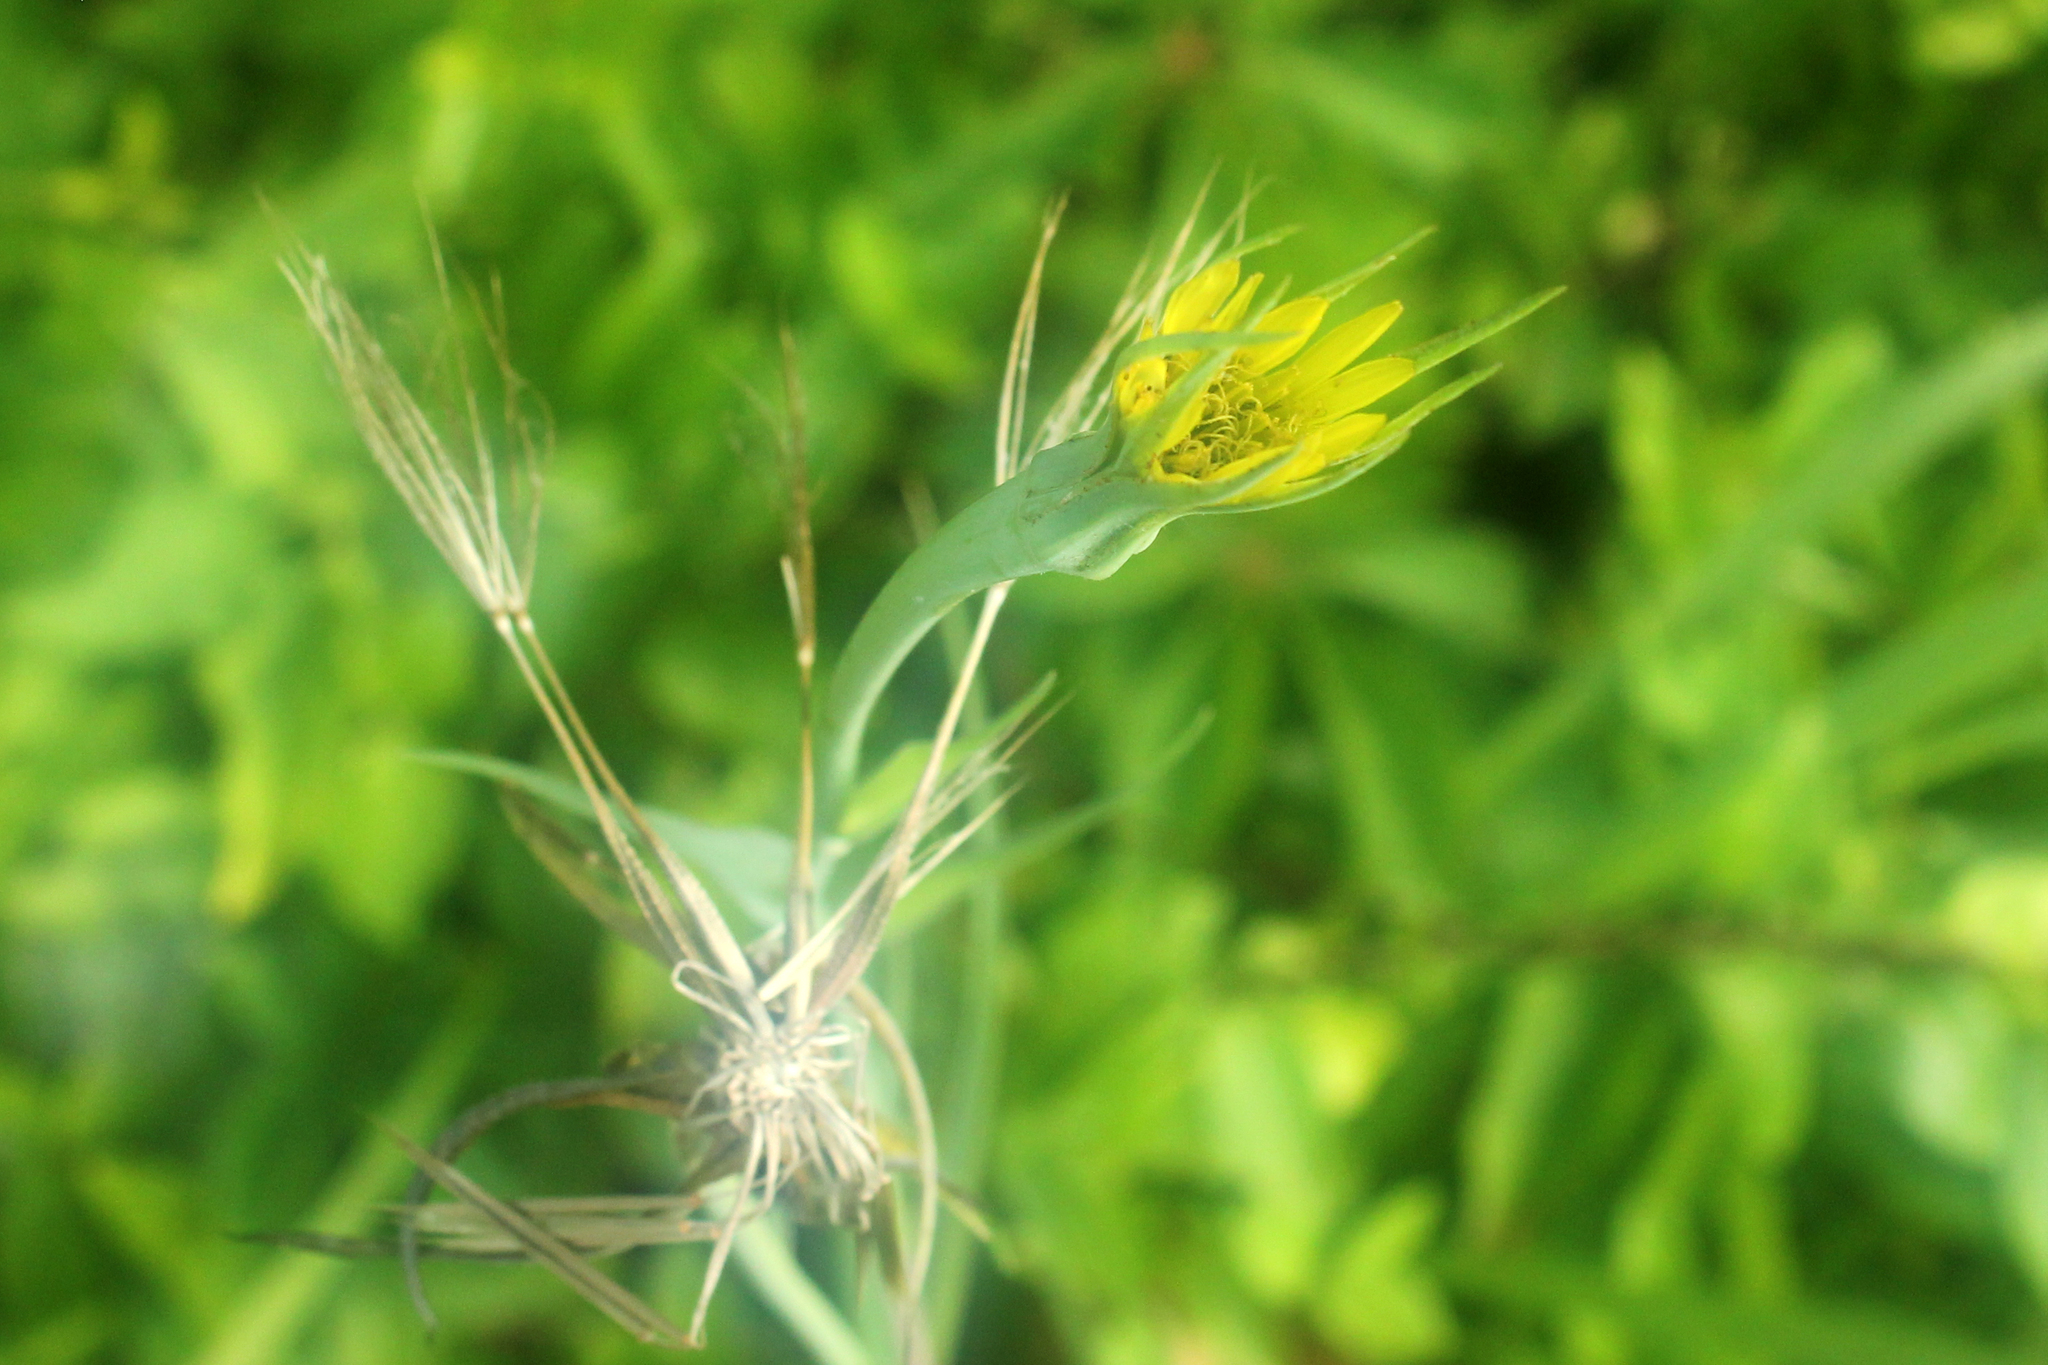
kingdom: Plantae
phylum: Tracheophyta
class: Magnoliopsida
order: Asterales
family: Asteraceae
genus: Tragopogon
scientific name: Tragopogon dubius
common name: Yellow salsify
